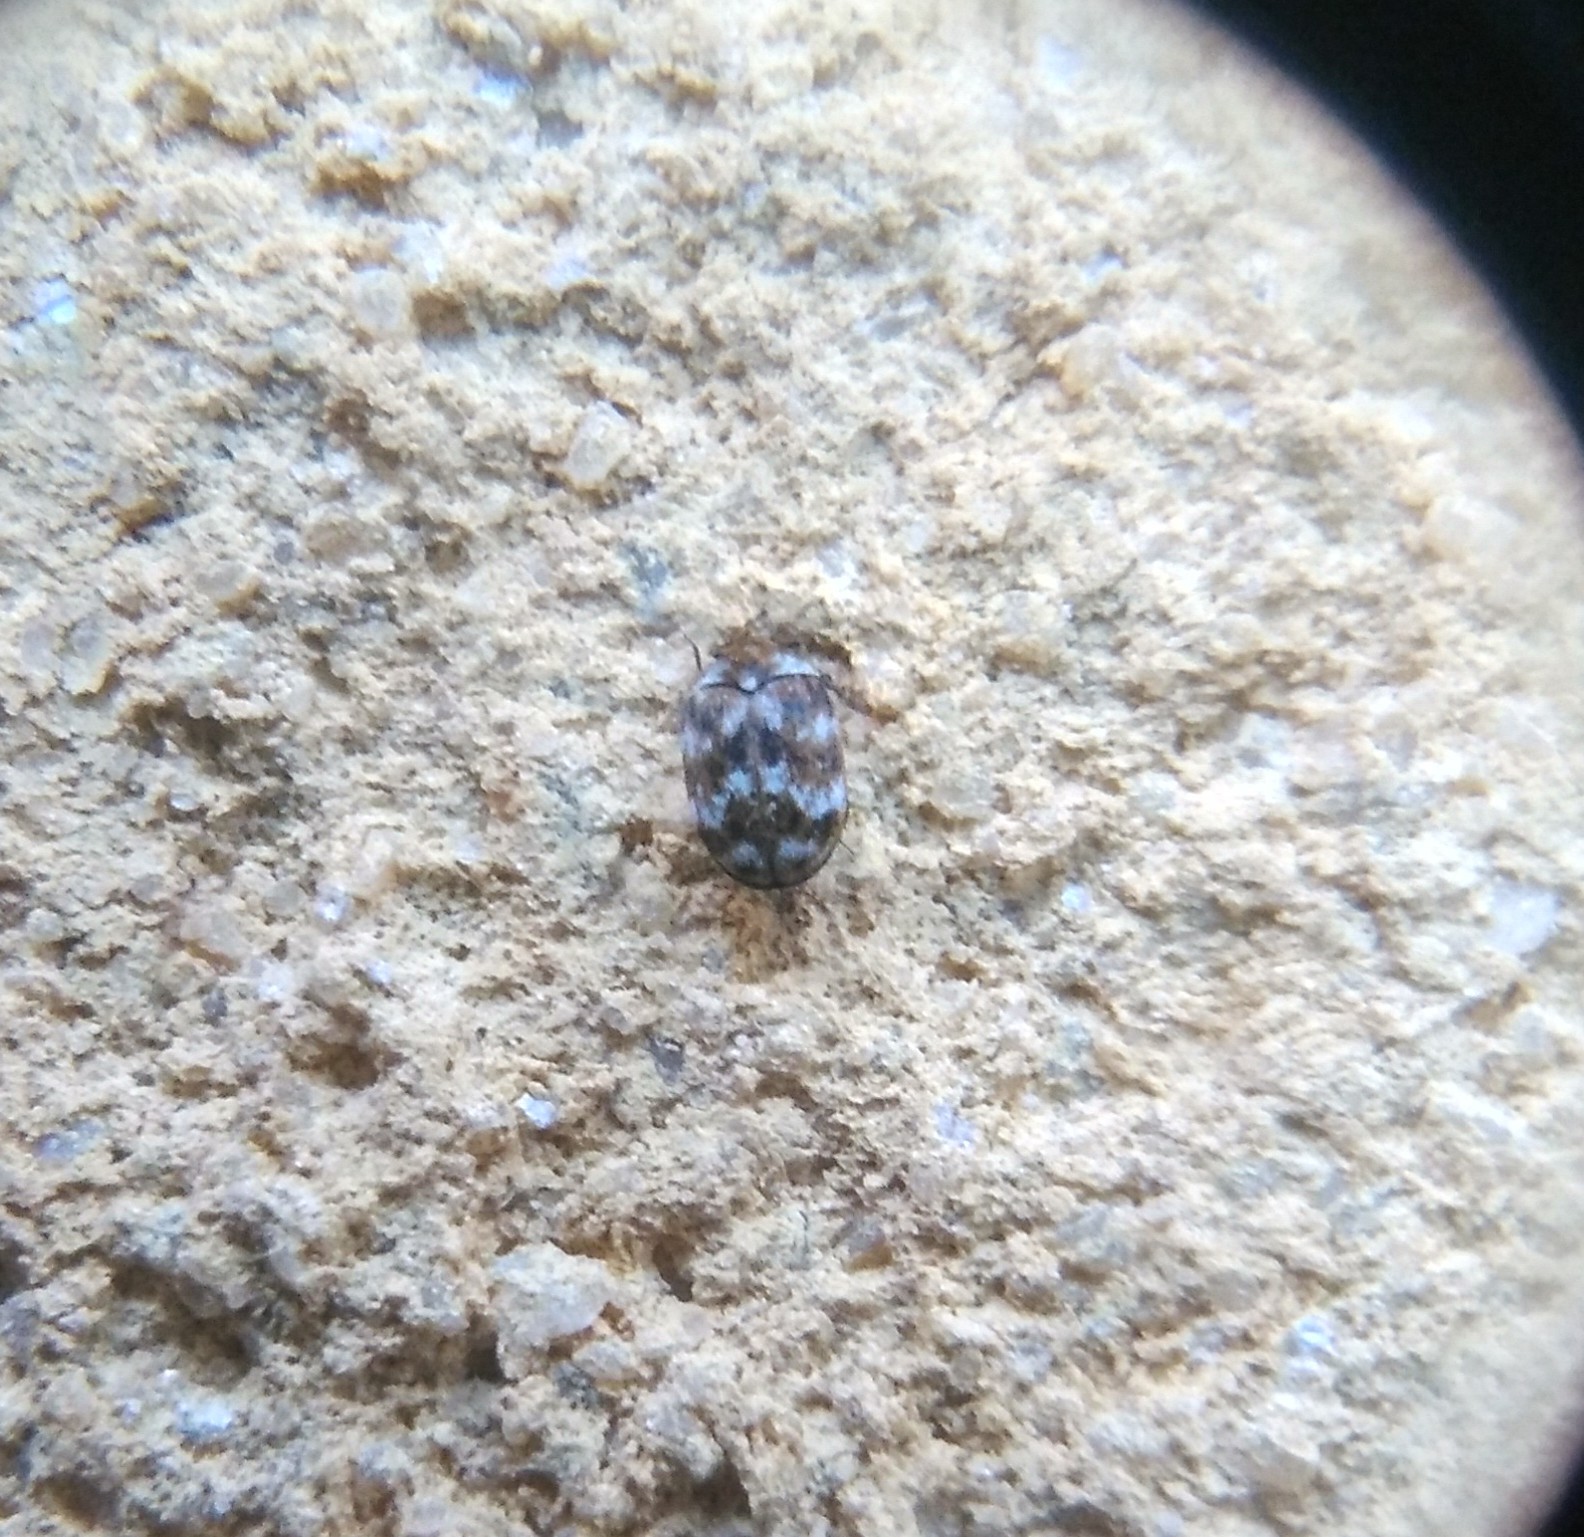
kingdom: Animalia
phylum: Arthropoda
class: Insecta
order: Coleoptera
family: Dermestidae
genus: Anthrenus
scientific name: Anthrenus verbasci
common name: Varied carpet beetle
